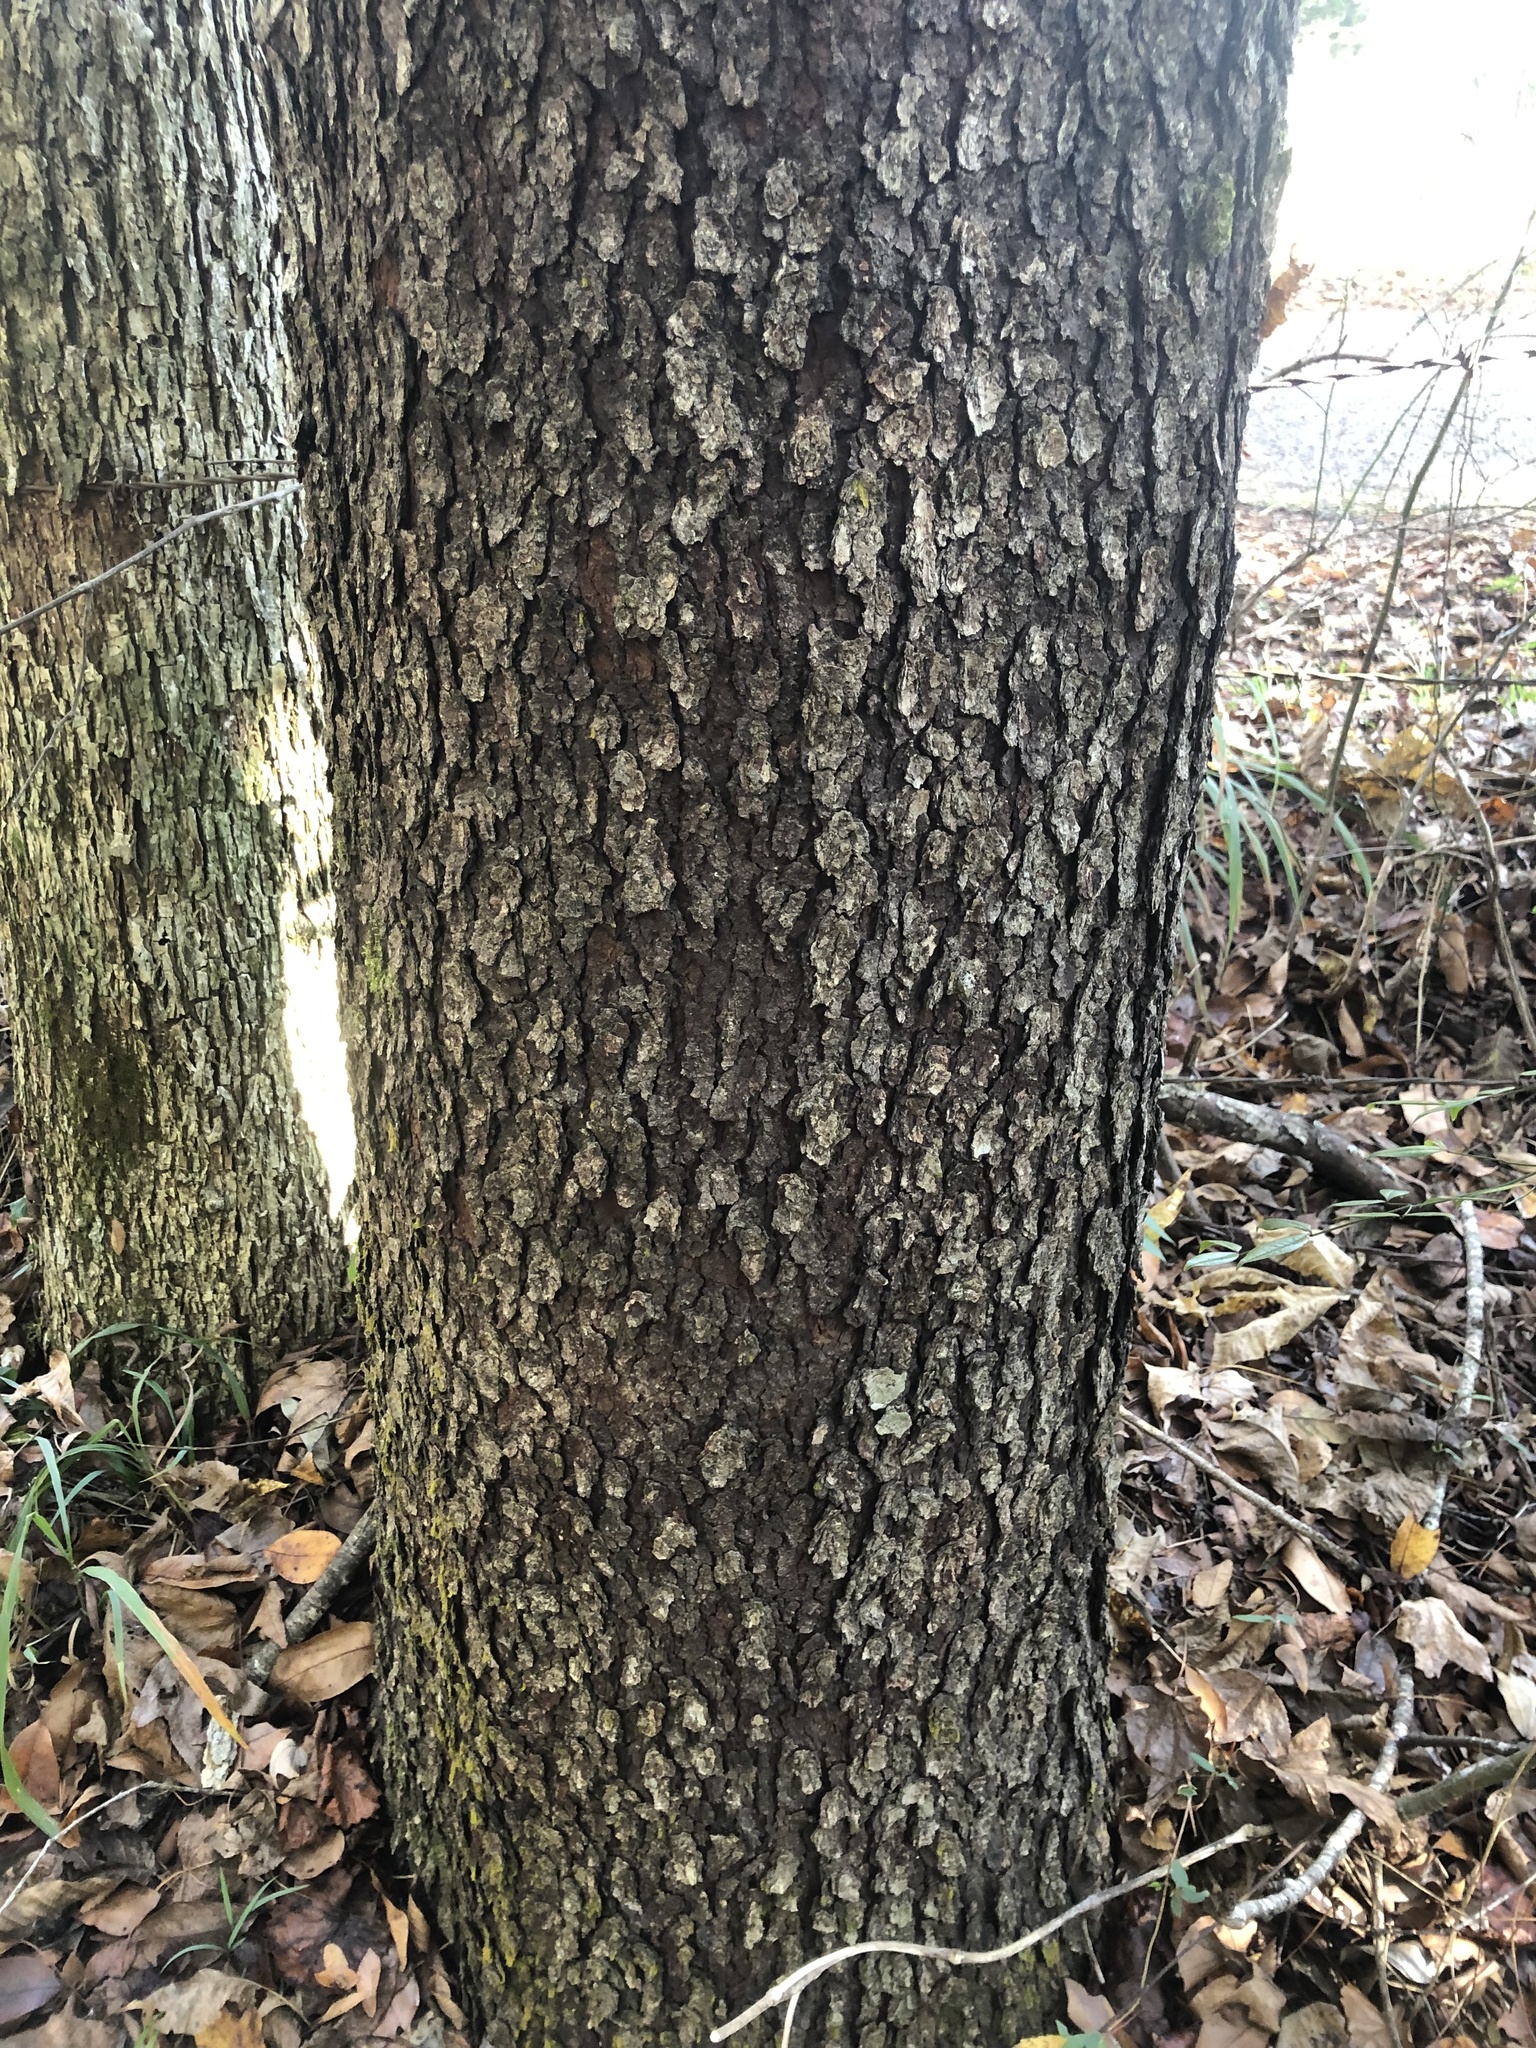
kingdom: Plantae
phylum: Tracheophyta
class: Magnoliopsida
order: Rosales
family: Rosaceae
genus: Prunus
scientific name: Prunus serotina
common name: Black cherry
